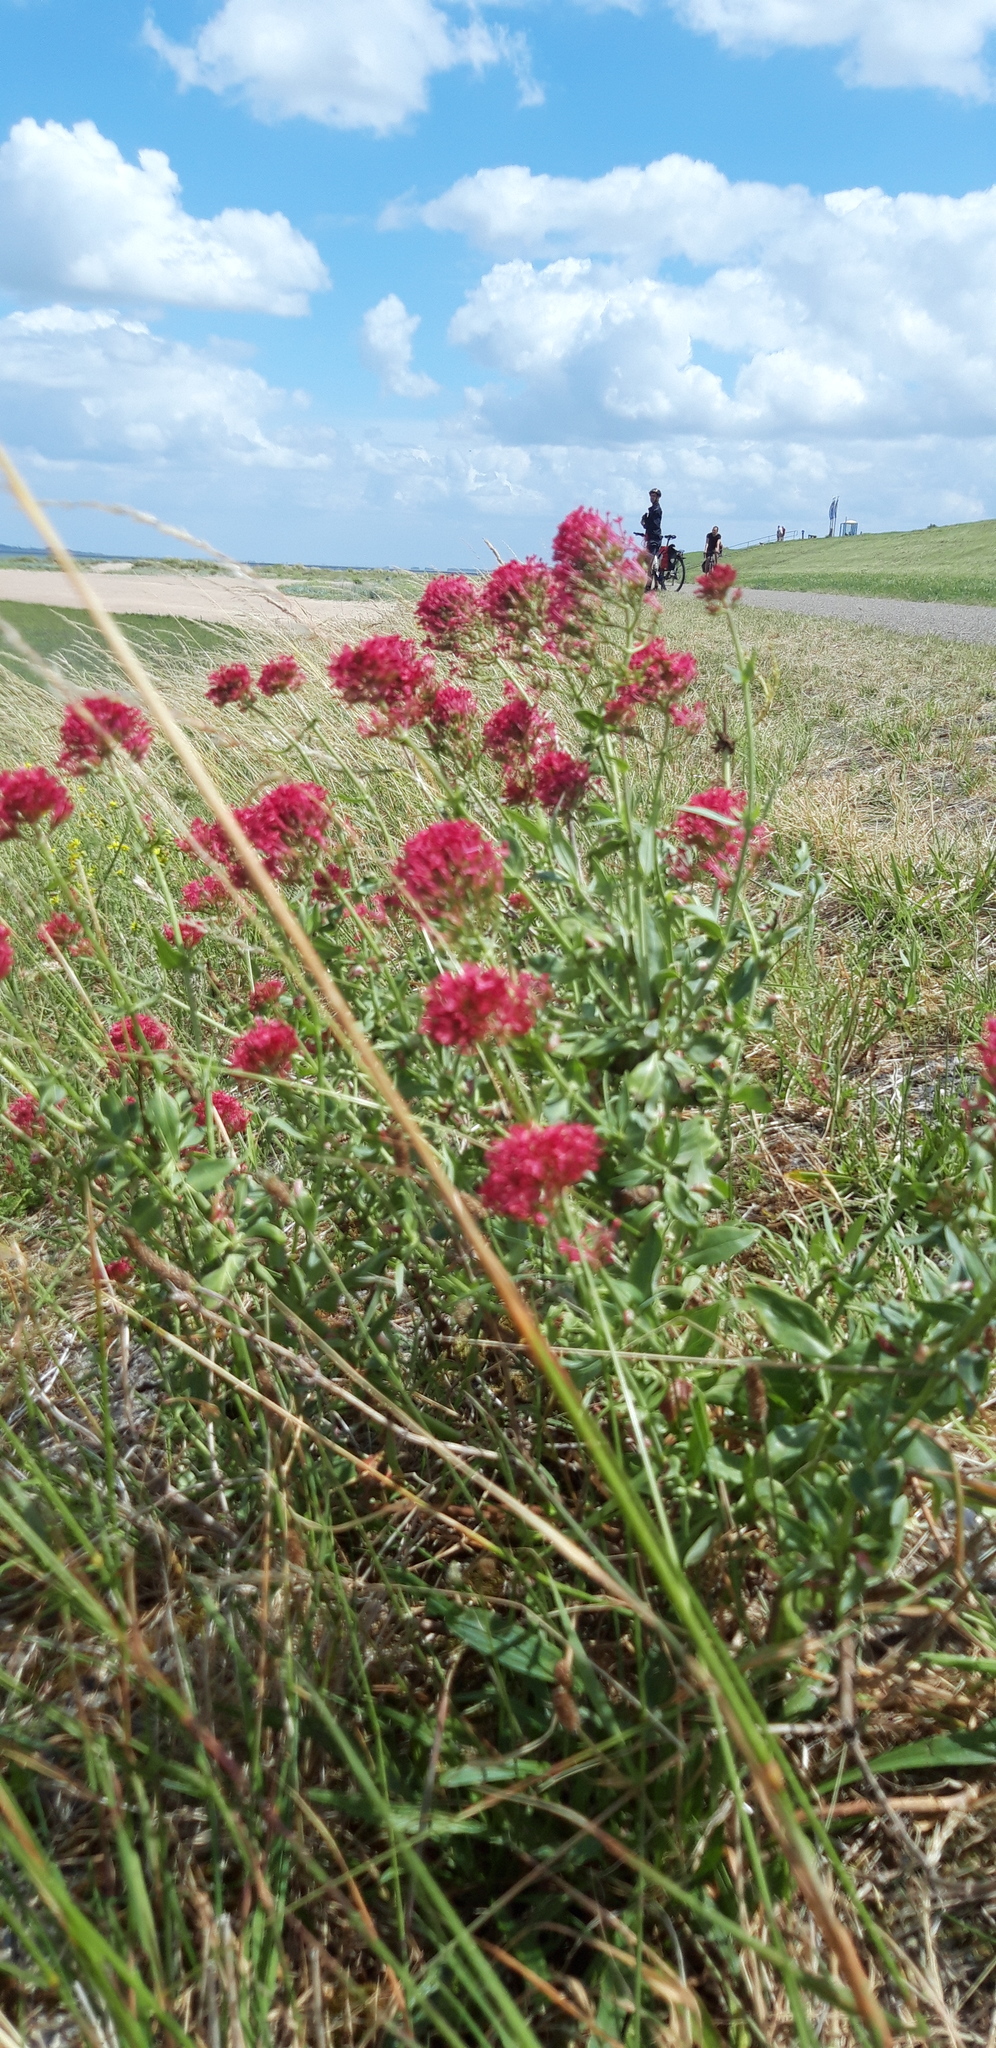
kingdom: Plantae
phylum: Tracheophyta
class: Magnoliopsida
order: Dipsacales
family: Caprifoliaceae
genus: Centranthus
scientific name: Centranthus ruber
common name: Red valerian
